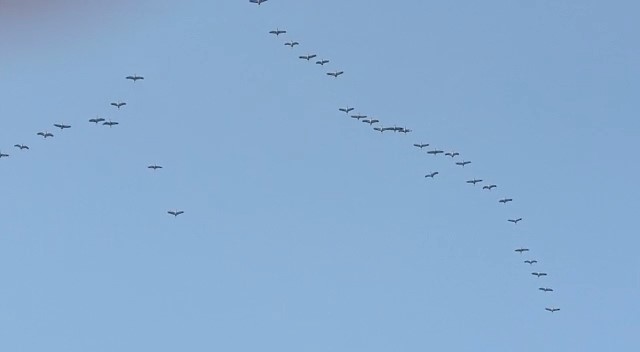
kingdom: Animalia
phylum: Chordata
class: Aves
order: Gruiformes
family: Gruidae
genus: Grus
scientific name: Grus grus
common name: Common crane
